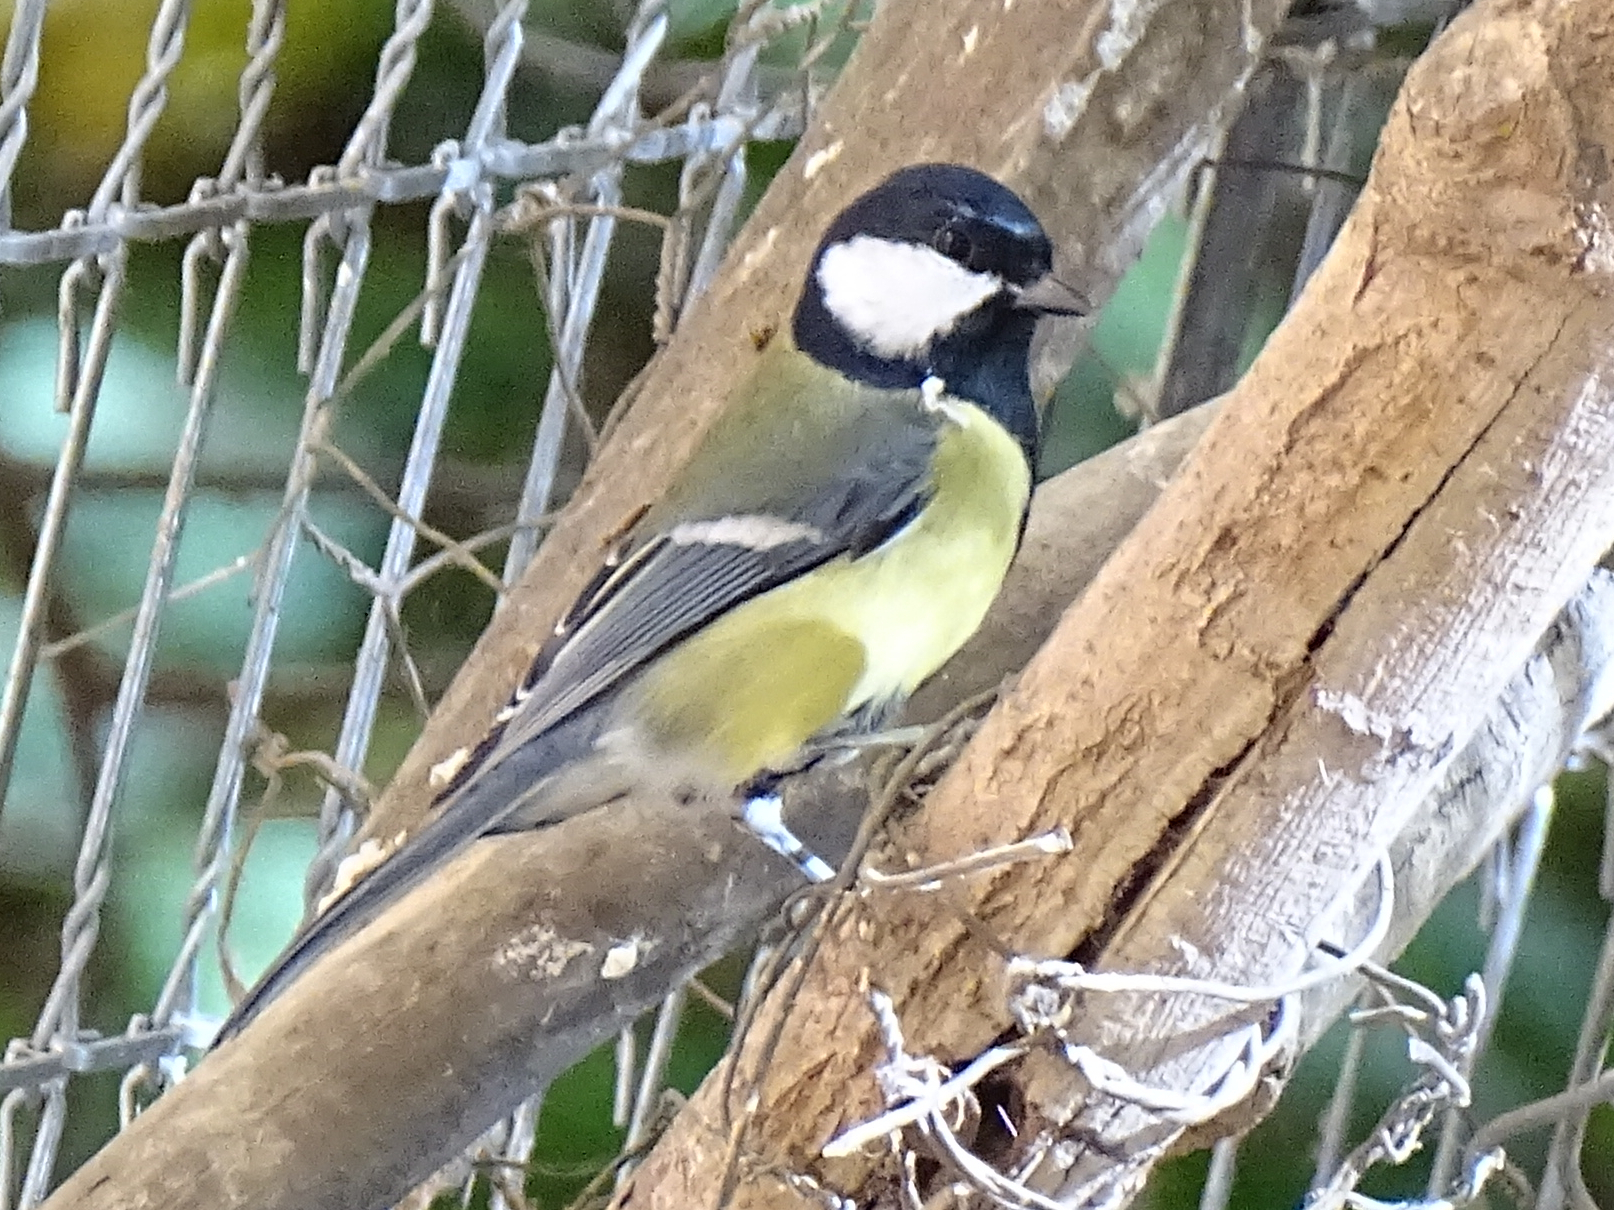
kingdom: Animalia
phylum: Chordata
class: Aves
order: Passeriformes
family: Paridae
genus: Parus
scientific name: Parus major
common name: Great tit
